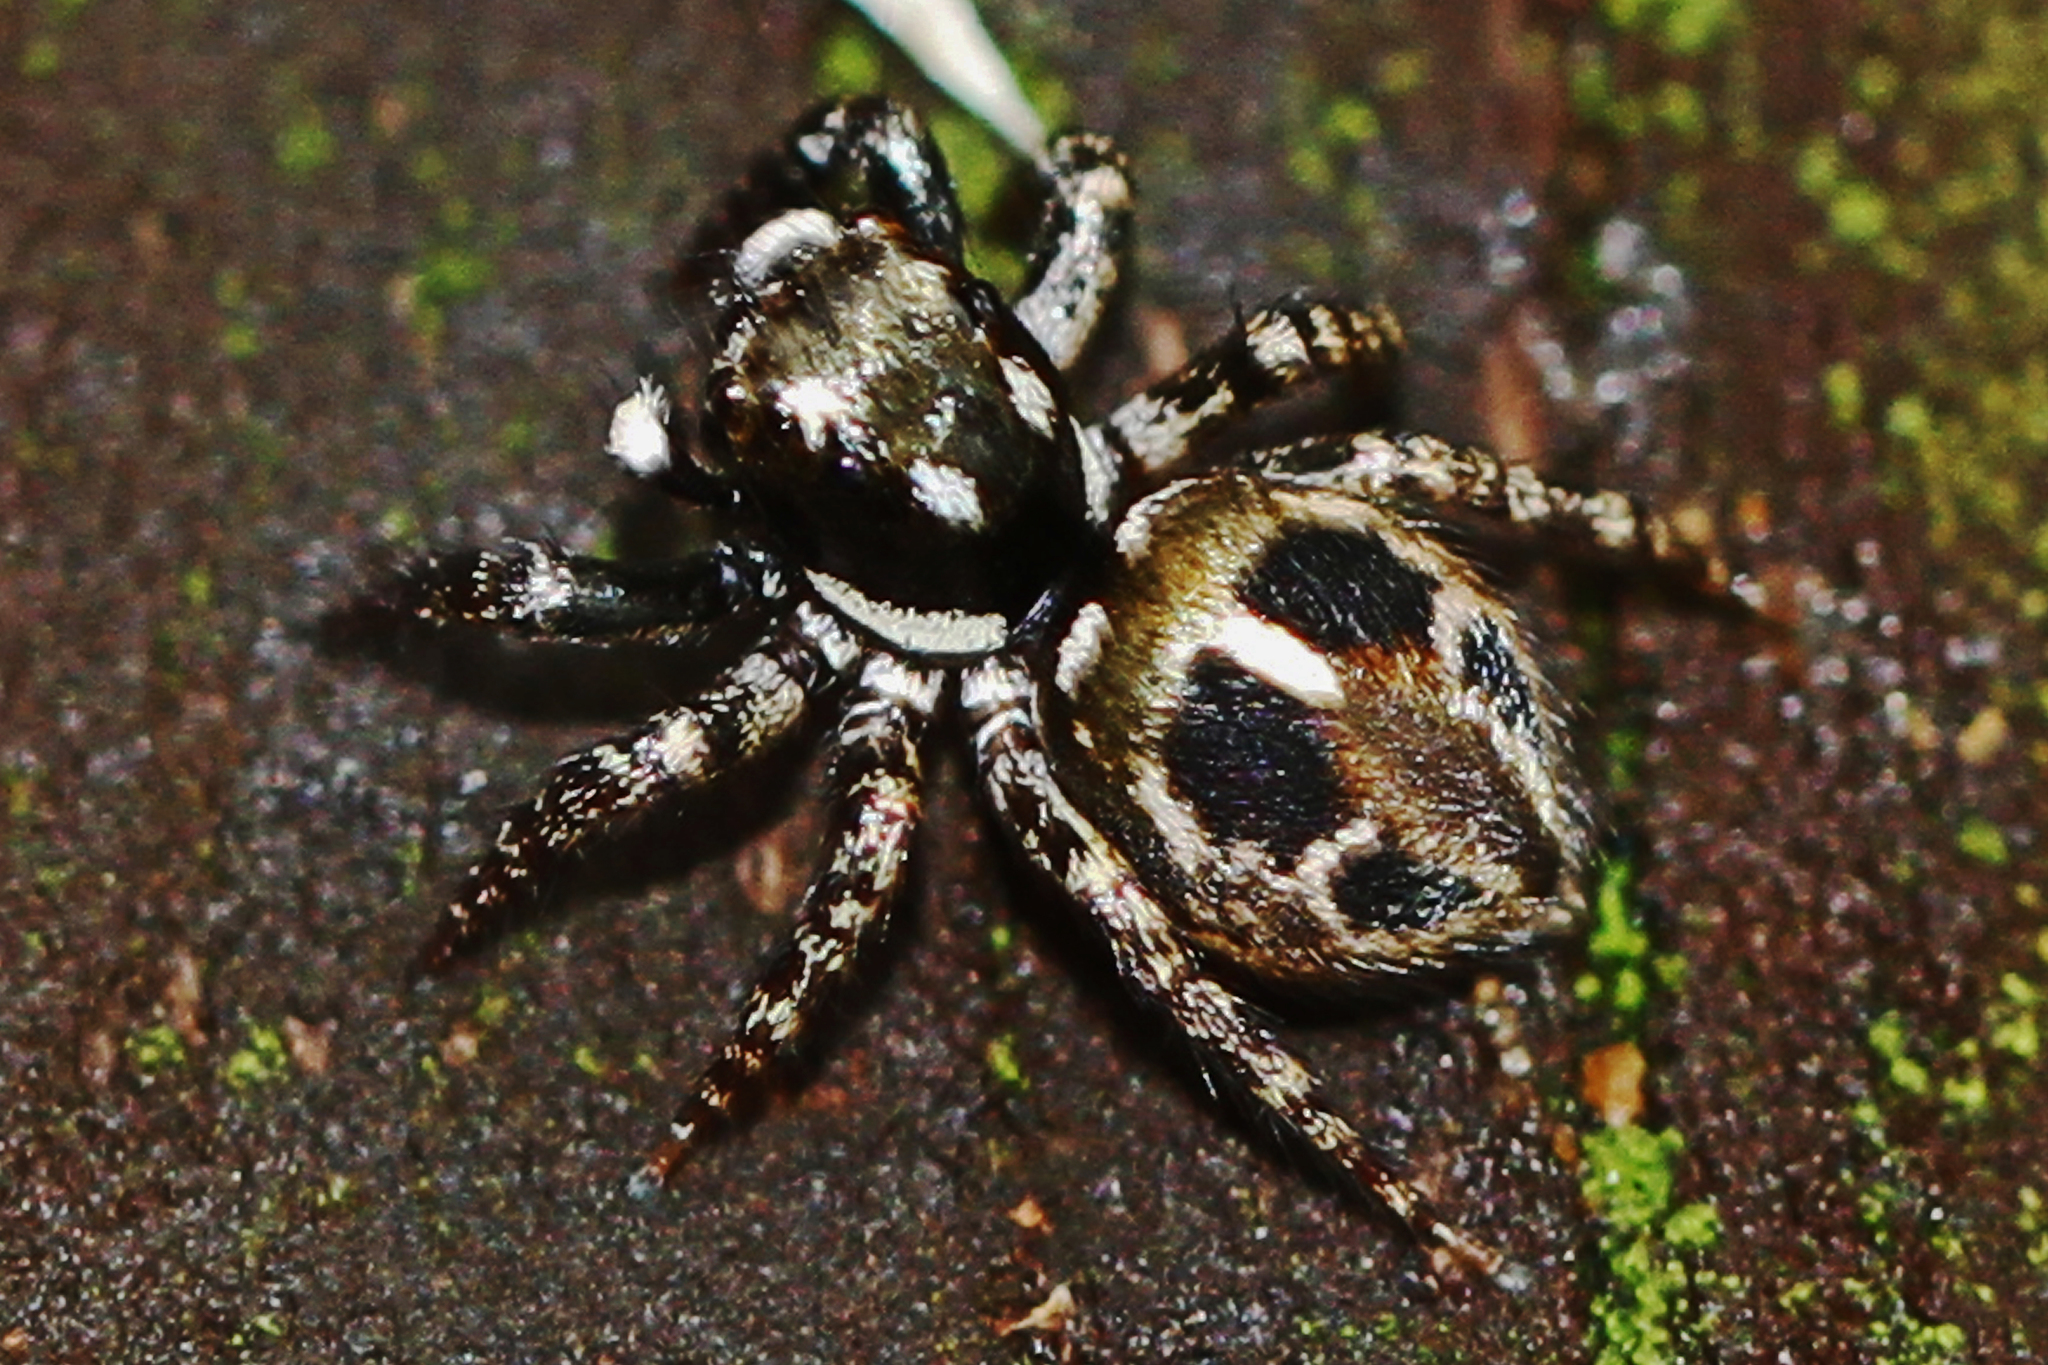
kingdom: Animalia
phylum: Arthropoda
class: Arachnida
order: Araneae
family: Salticidae
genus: Anasaitis
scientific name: Anasaitis canosa
